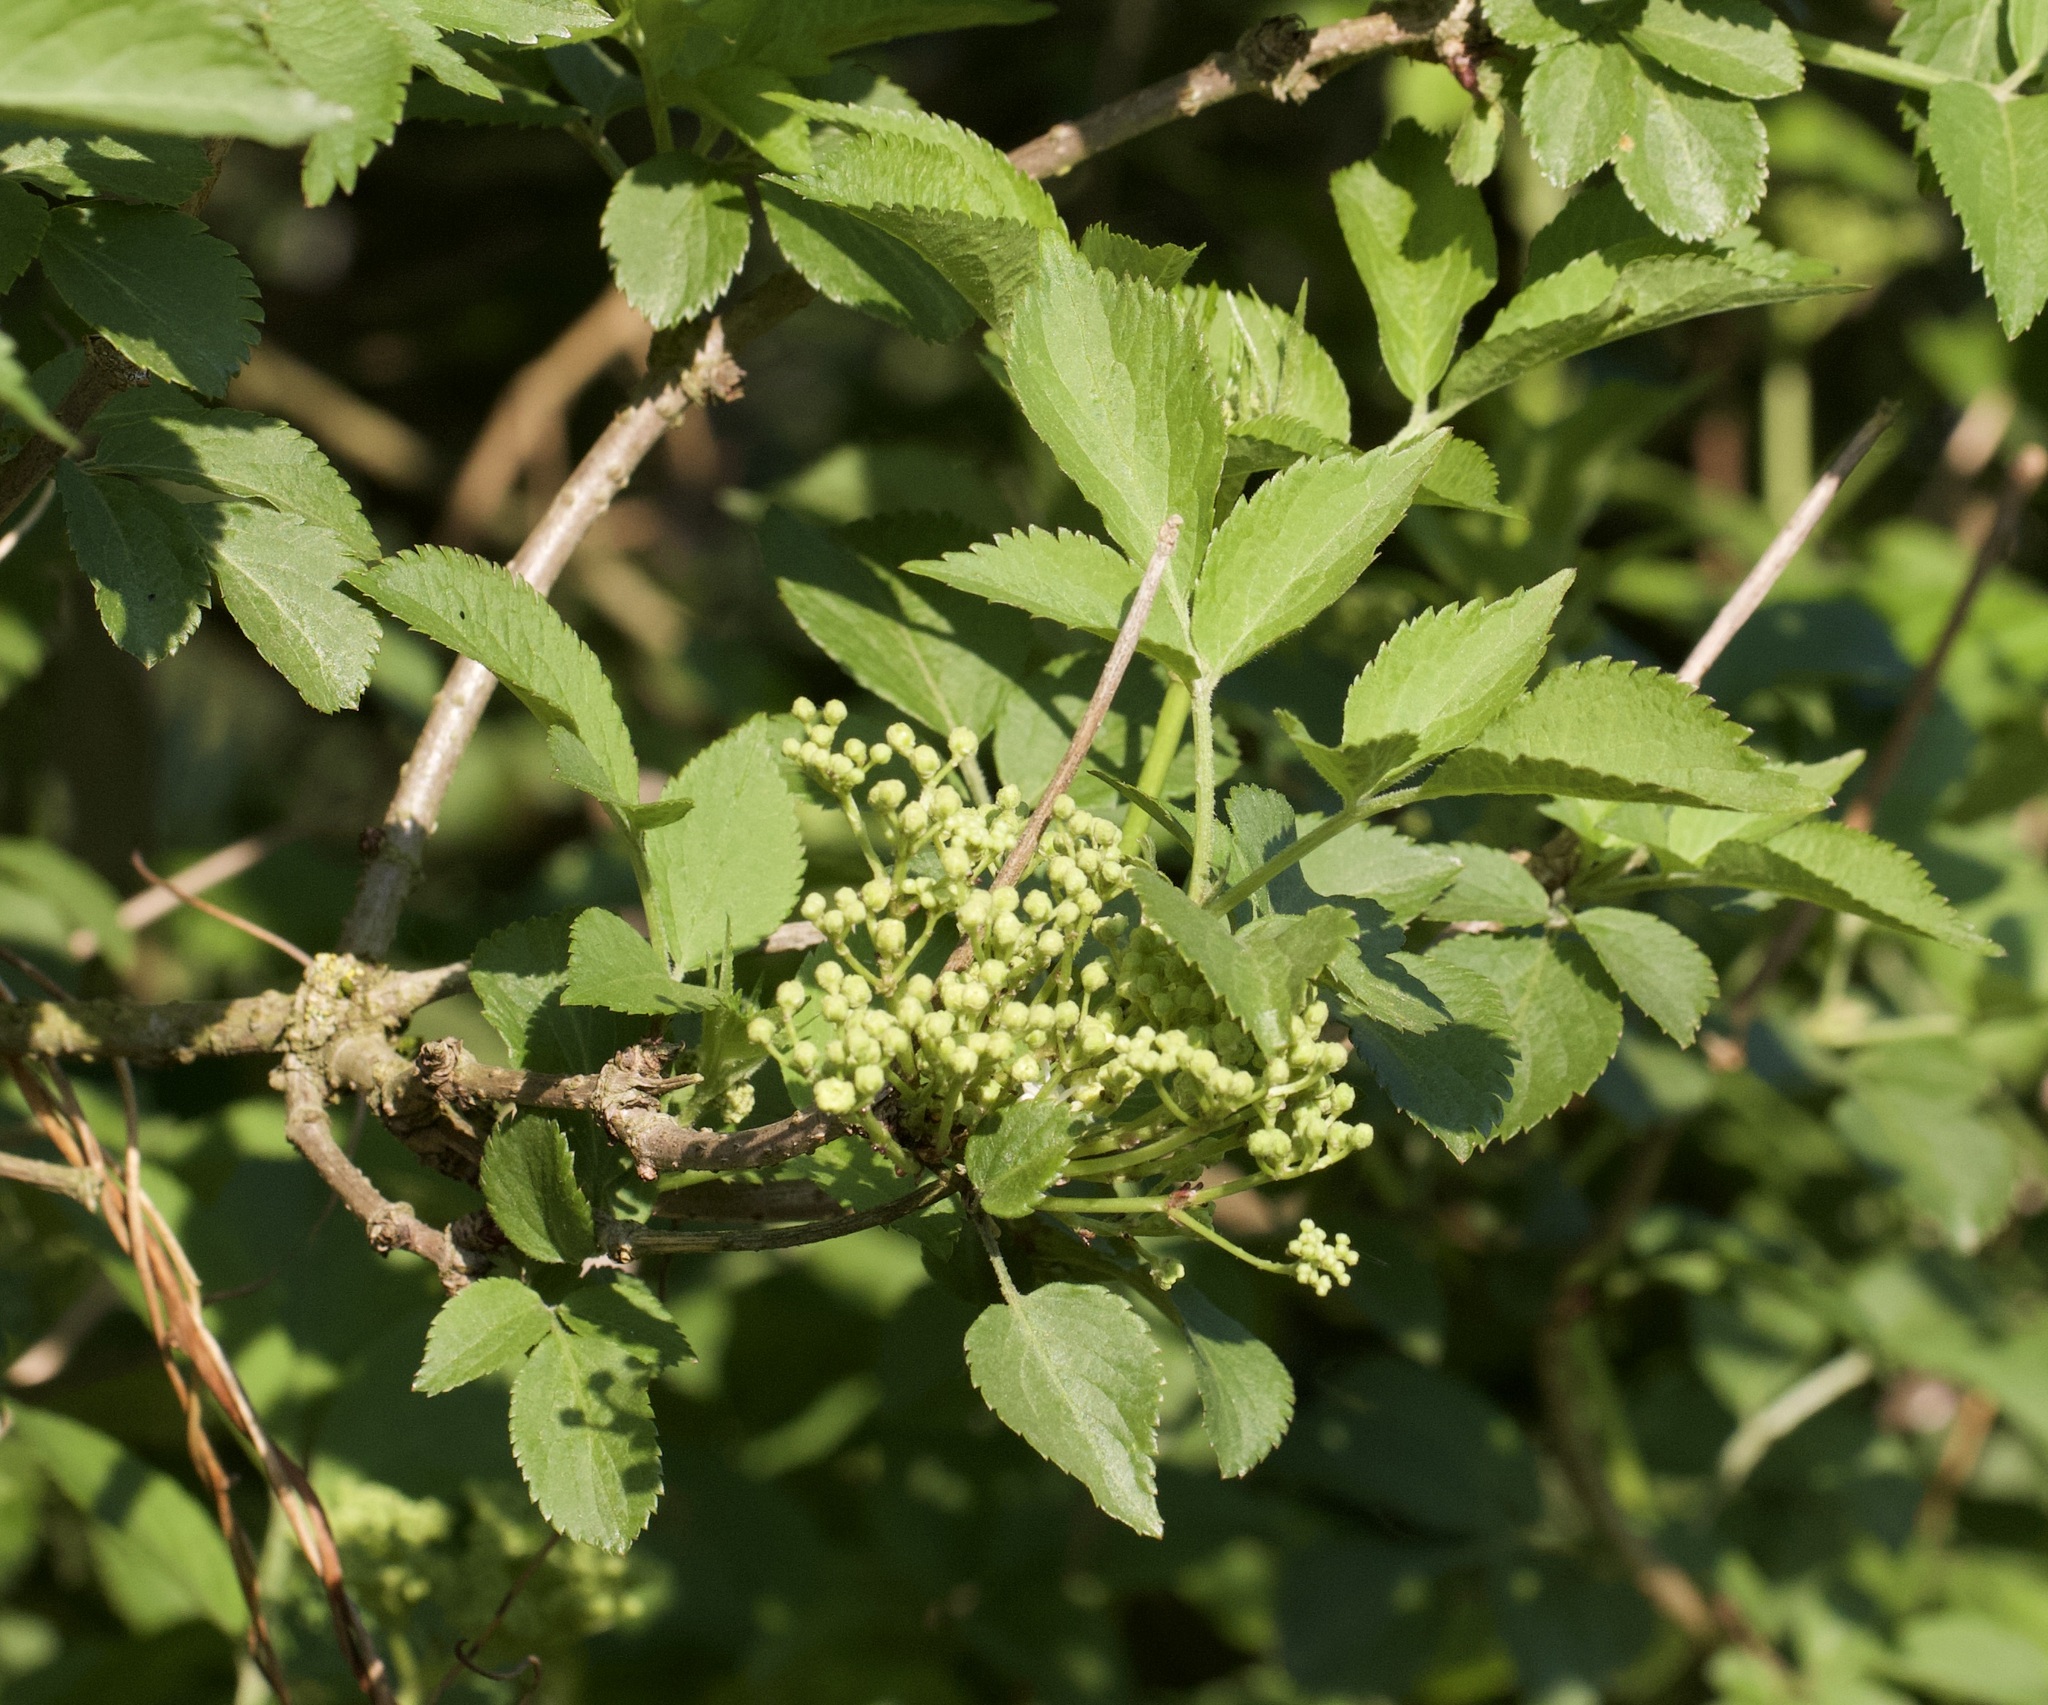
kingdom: Plantae
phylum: Tracheophyta
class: Magnoliopsida
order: Dipsacales
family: Viburnaceae
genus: Sambucus
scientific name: Sambucus nigra
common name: Elder
